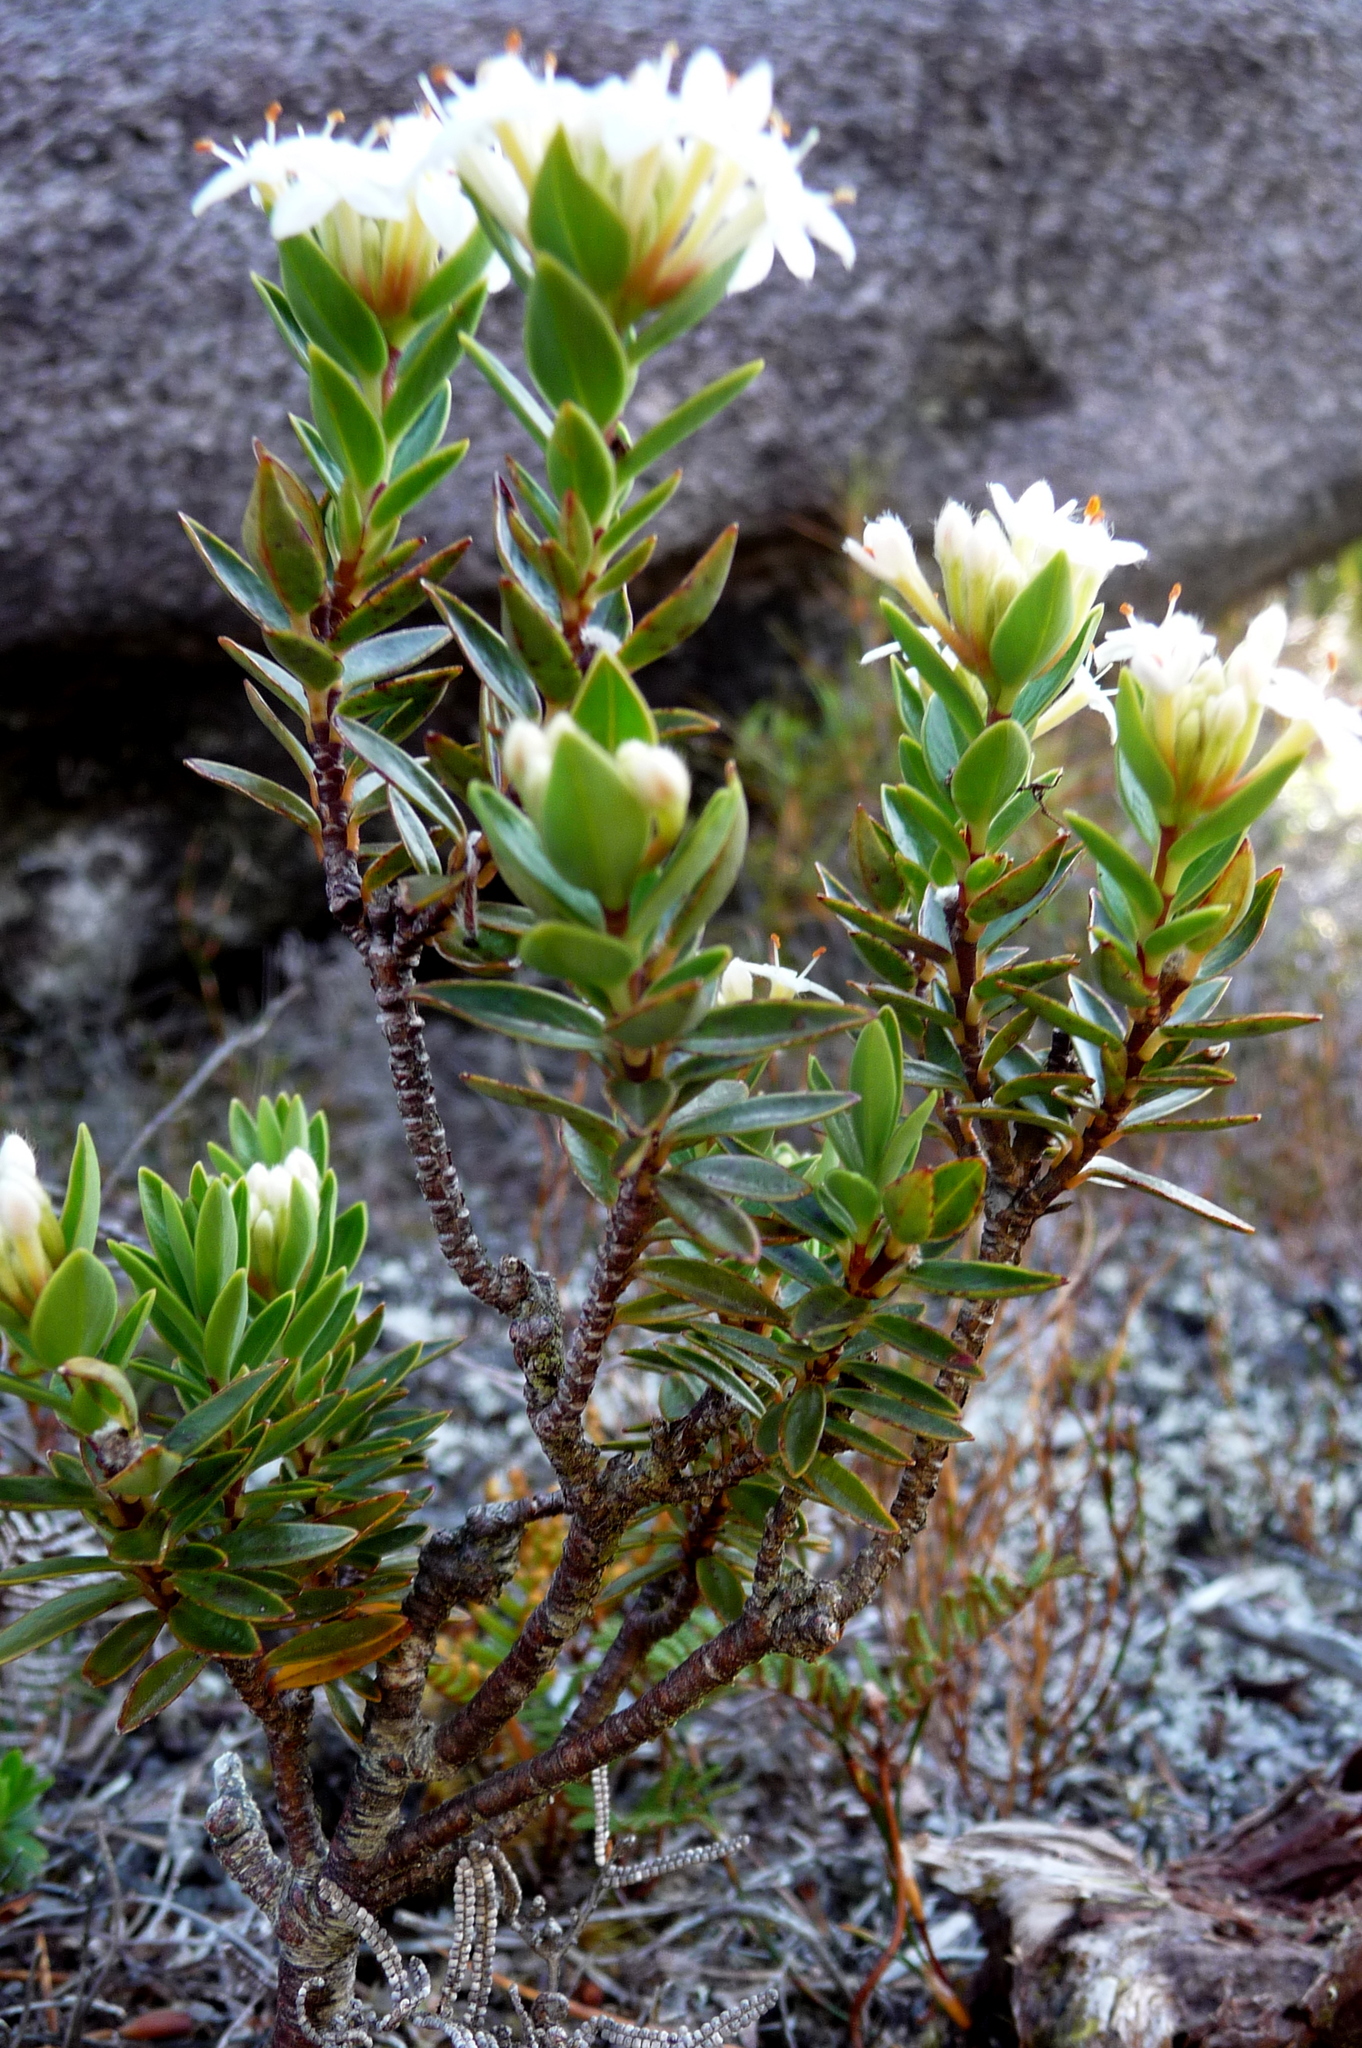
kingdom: Plantae
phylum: Tracheophyta
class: Magnoliopsida
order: Malvales
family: Thymelaeaceae
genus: Pimelea
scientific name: Pimelea gnidia
